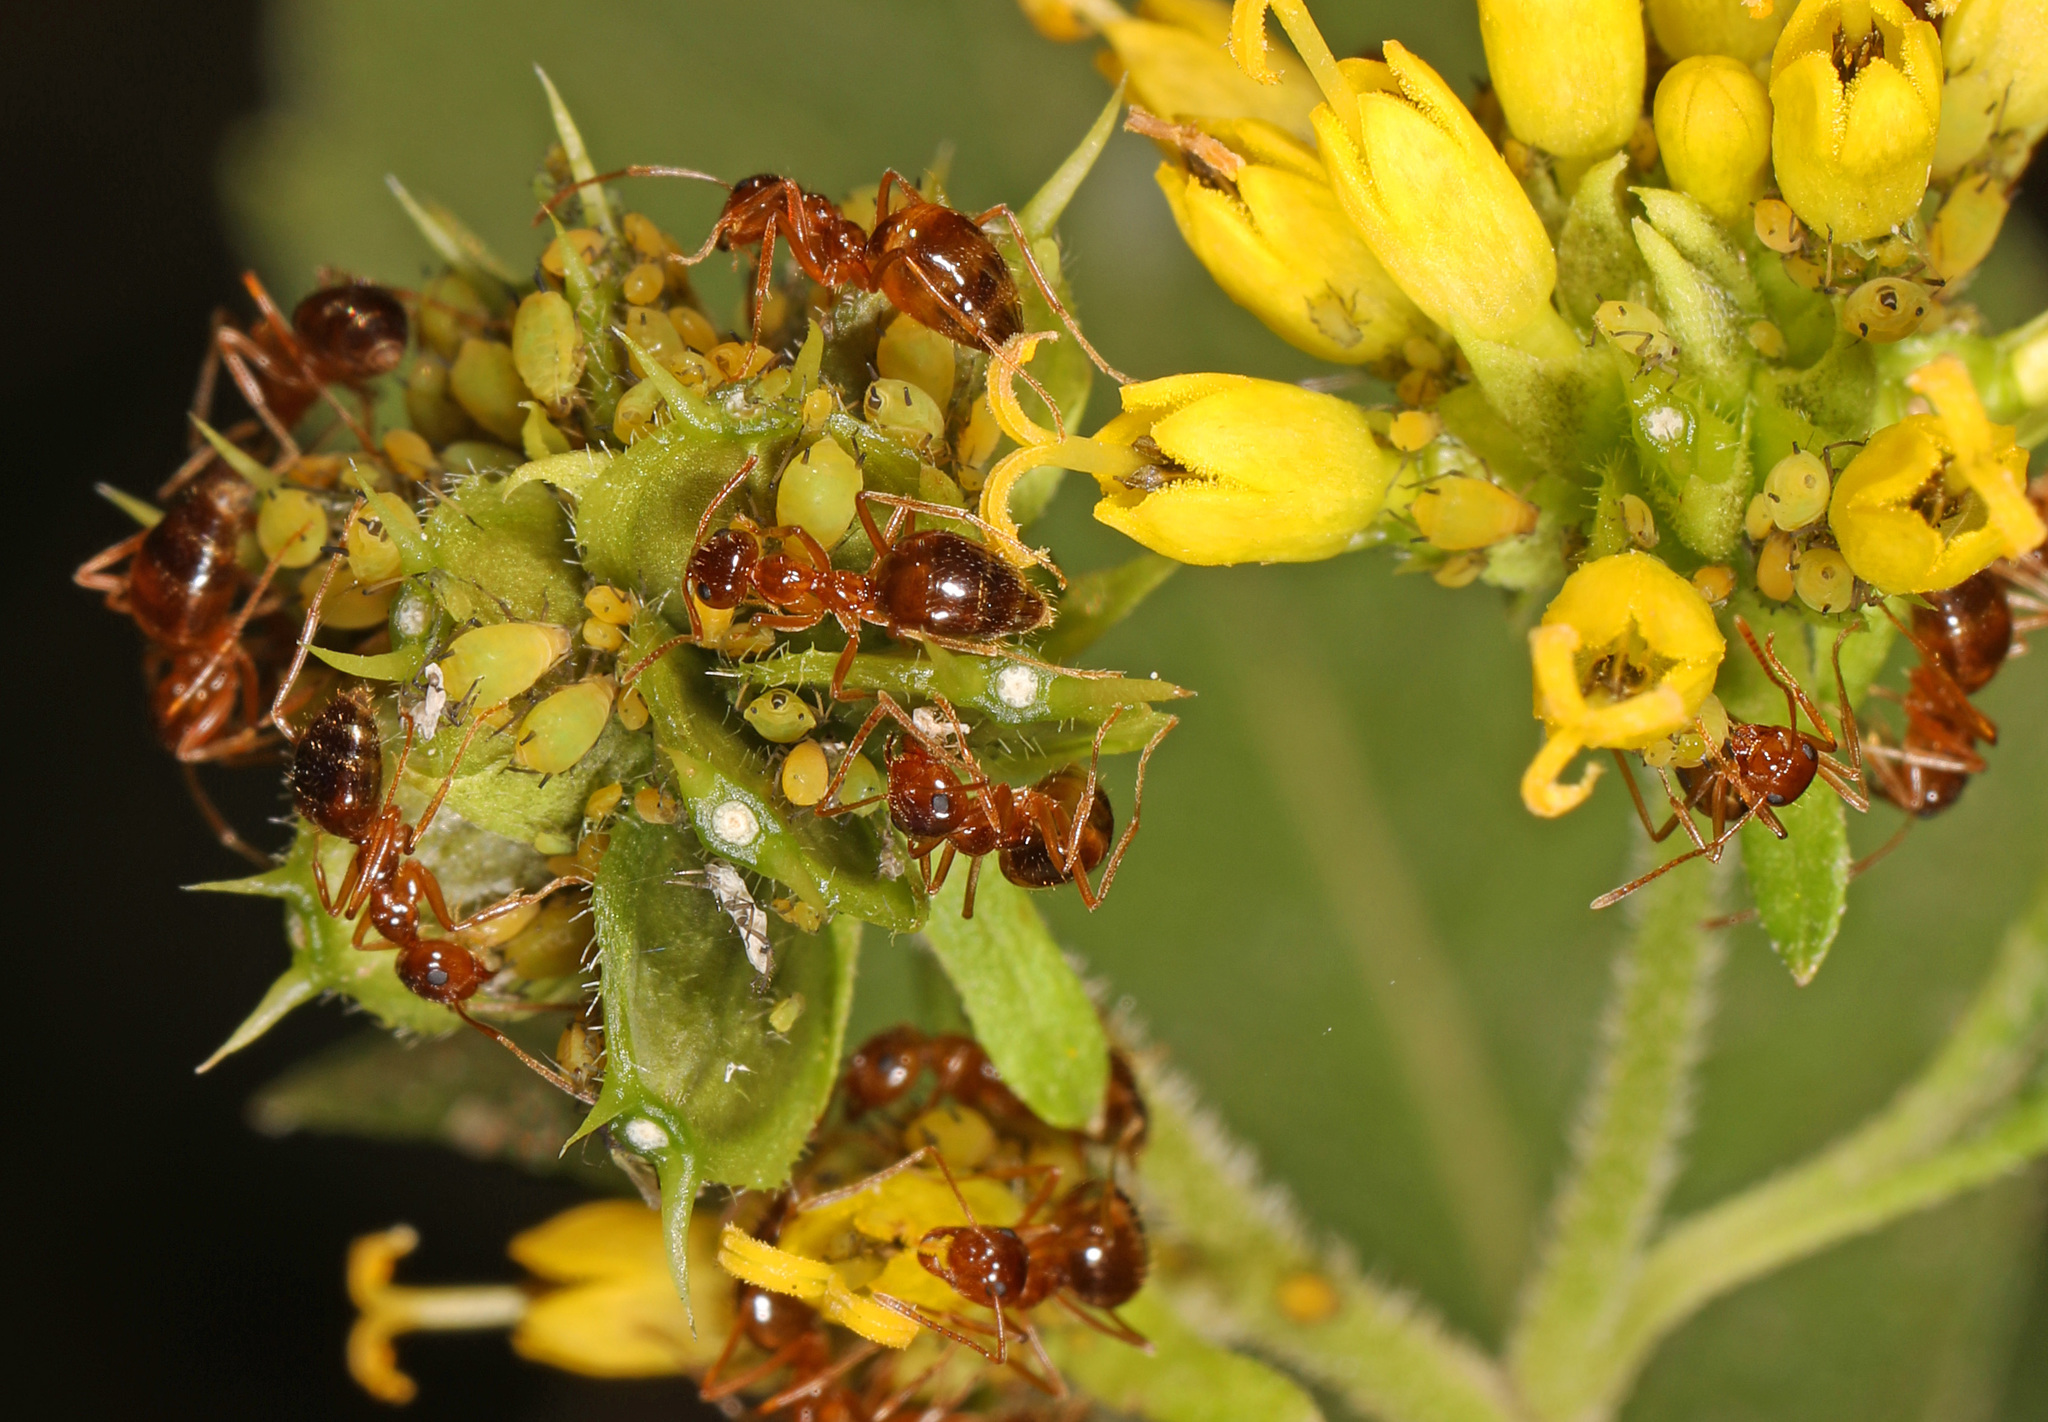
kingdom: Animalia
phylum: Arthropoda
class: Insecta
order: Hymenoptera
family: Formicidae
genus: Prenolepis
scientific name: Prenolepis imparis
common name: Small honey ant
